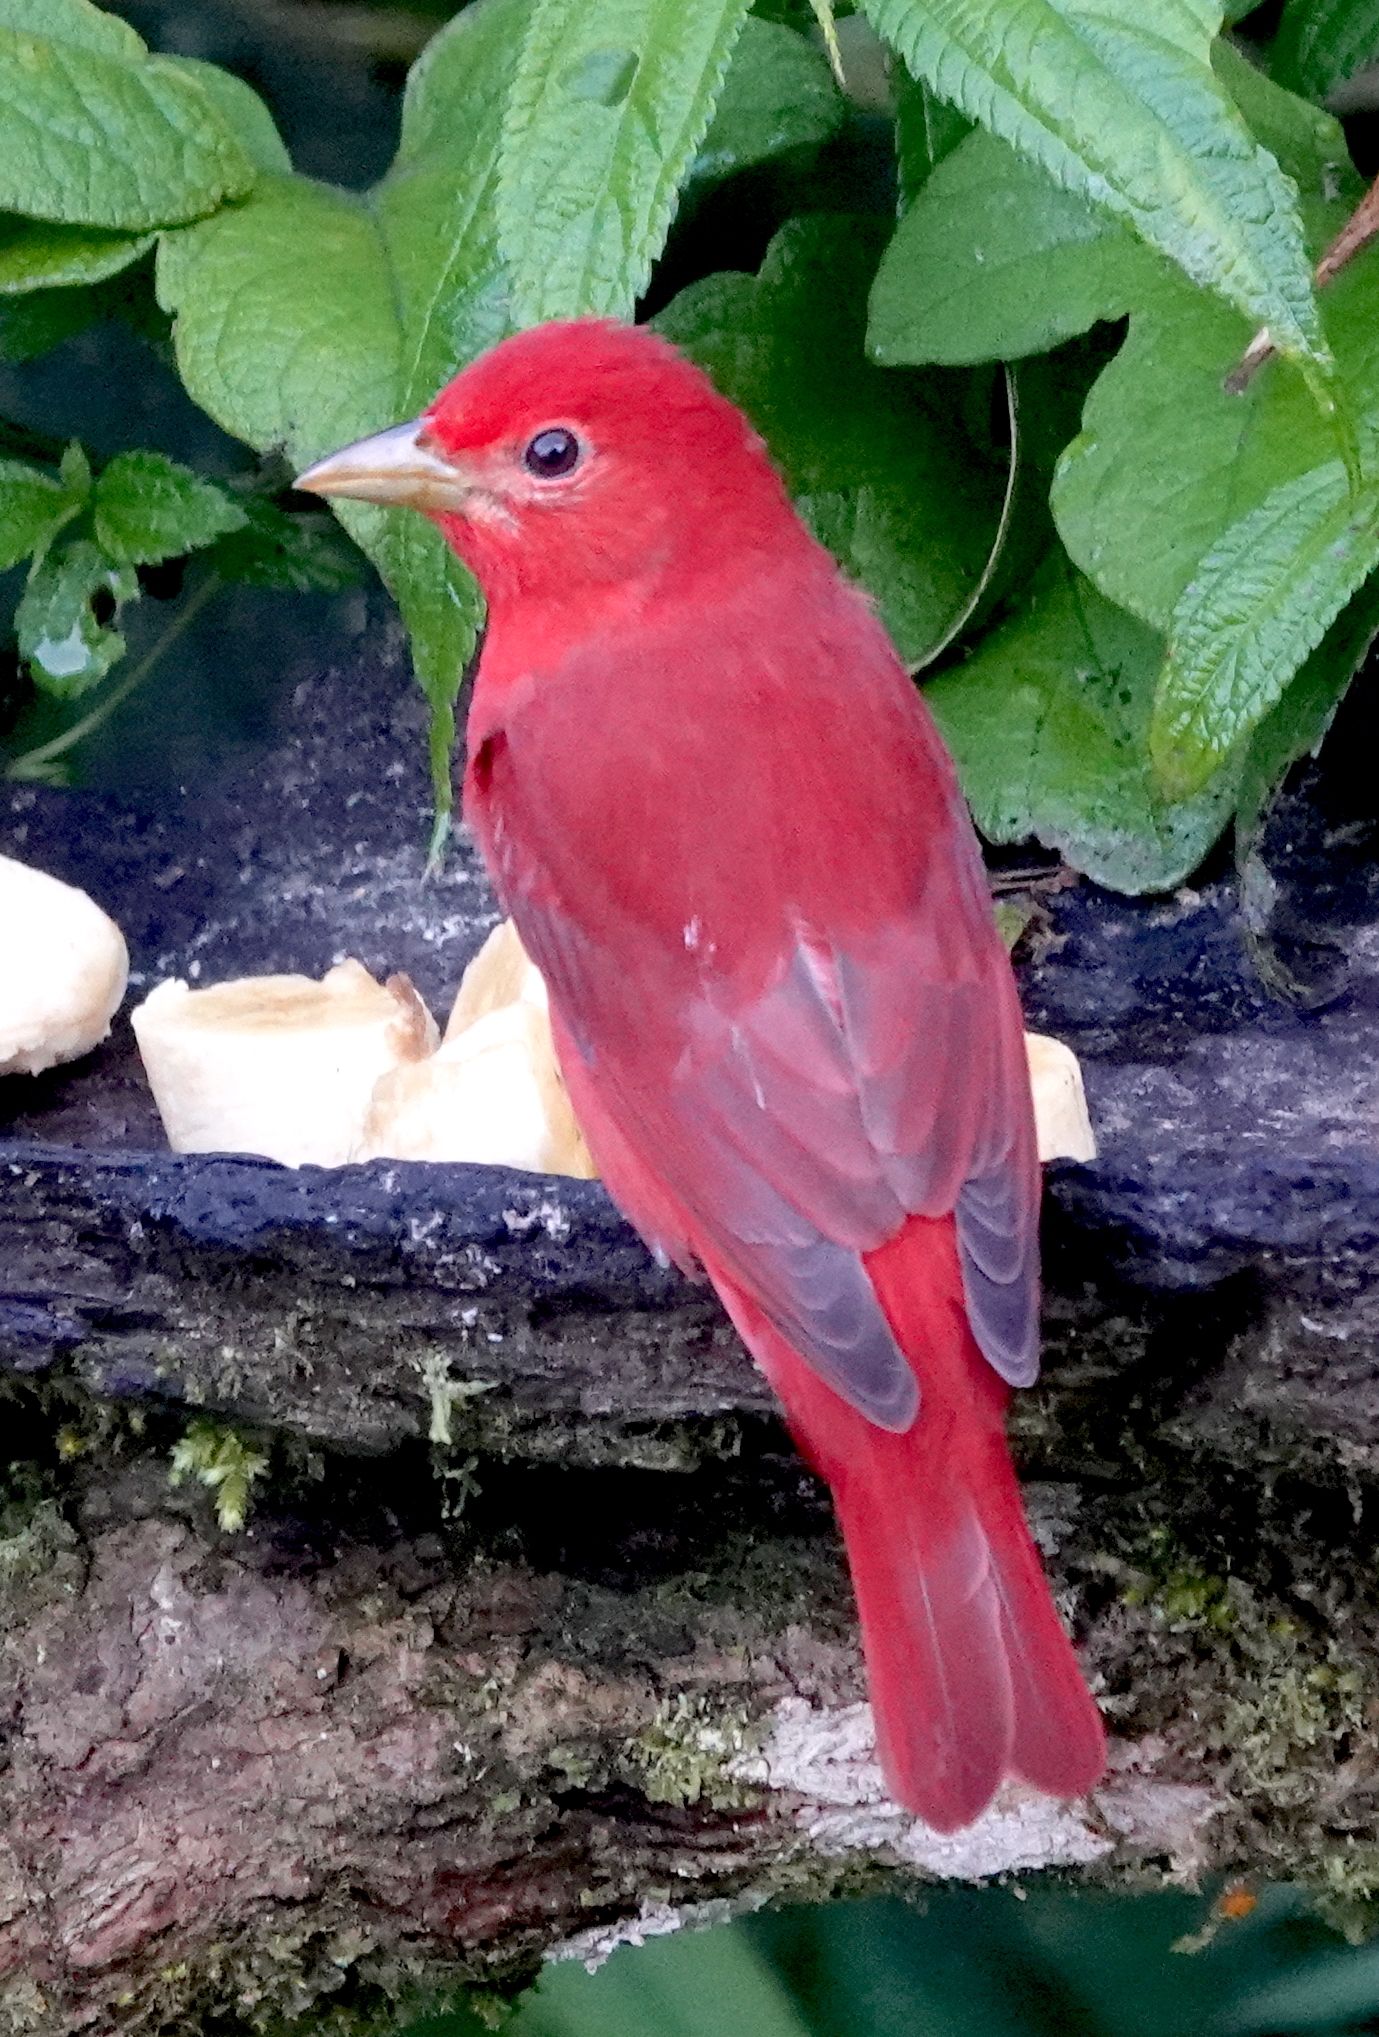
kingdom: Animalia
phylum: Chordata
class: Aves
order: Passeriformes
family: Cardinalidae
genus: Piranga
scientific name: Piranga rubra
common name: Summer tanager
